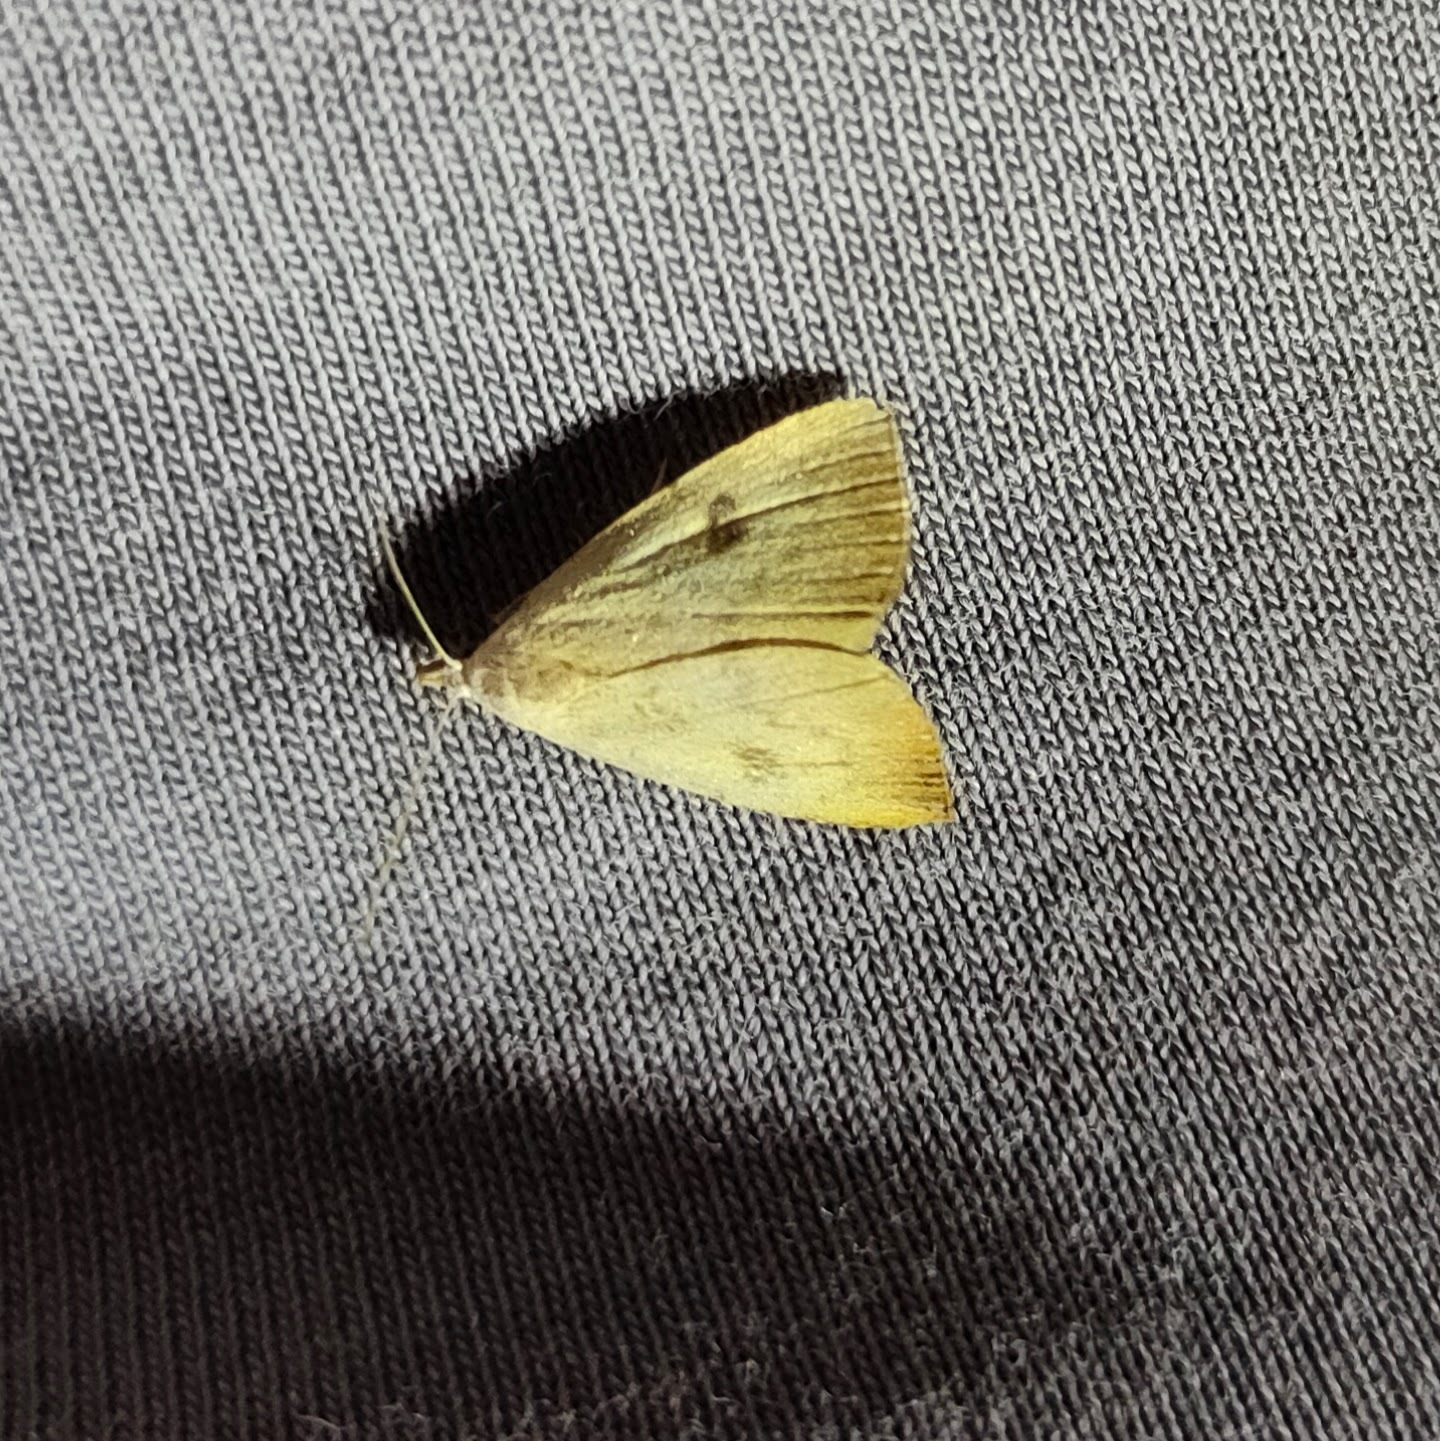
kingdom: Animalia
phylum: Arthropoda
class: Insecta
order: Lepidoptera
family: Erebidae
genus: Rivula
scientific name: Rivula sericealis
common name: Straw dot
